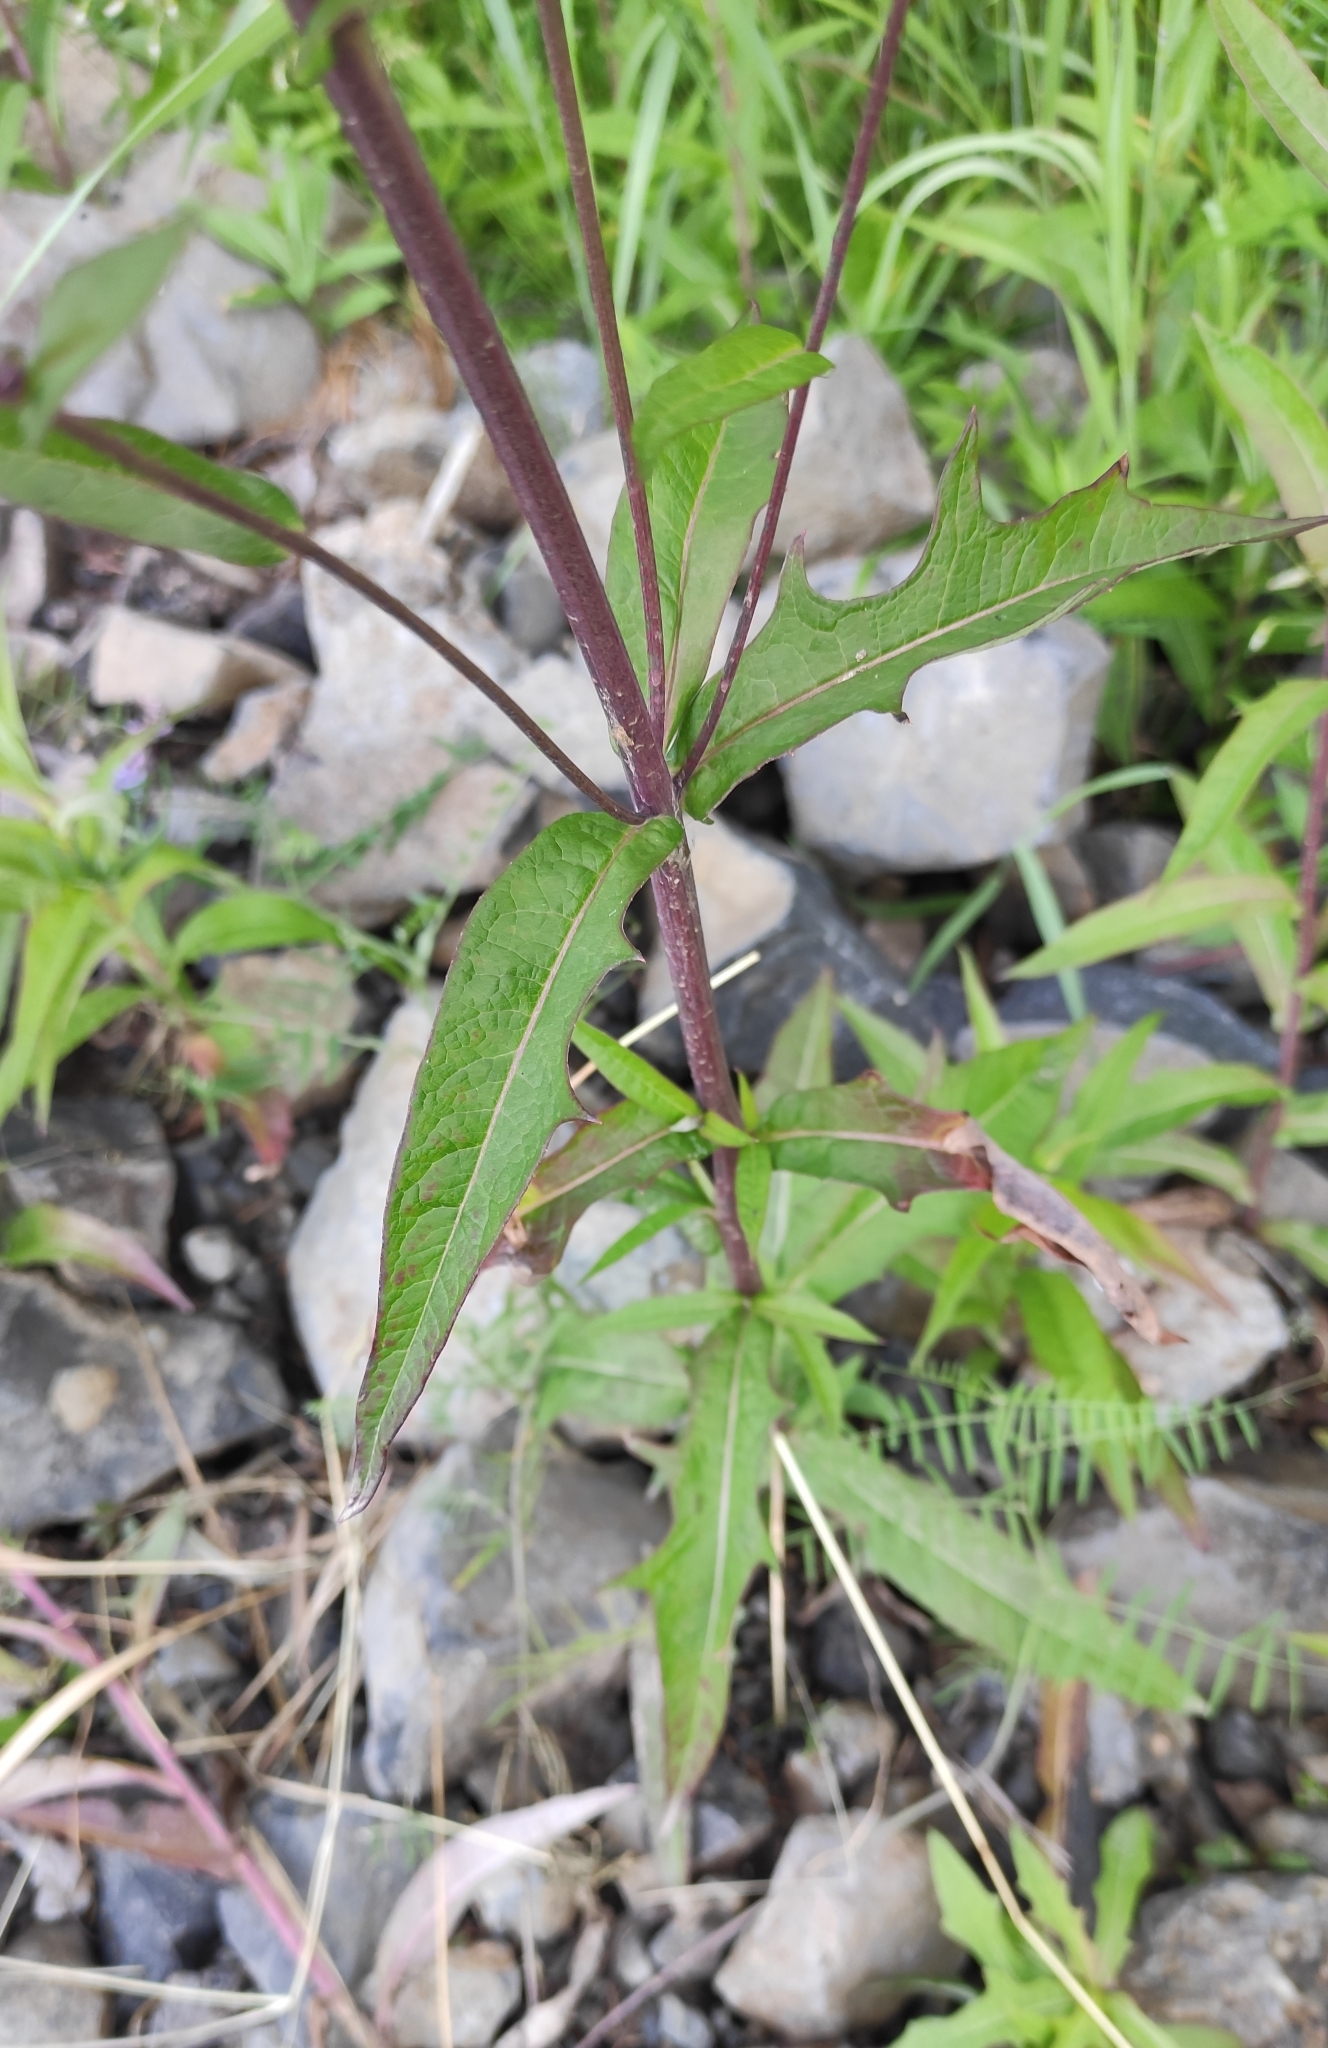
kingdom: Plantae
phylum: Tracheophyta
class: Magnoliopsida
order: Asterales
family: Asteraceae
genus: Lactuca
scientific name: Lactuca sibirica
